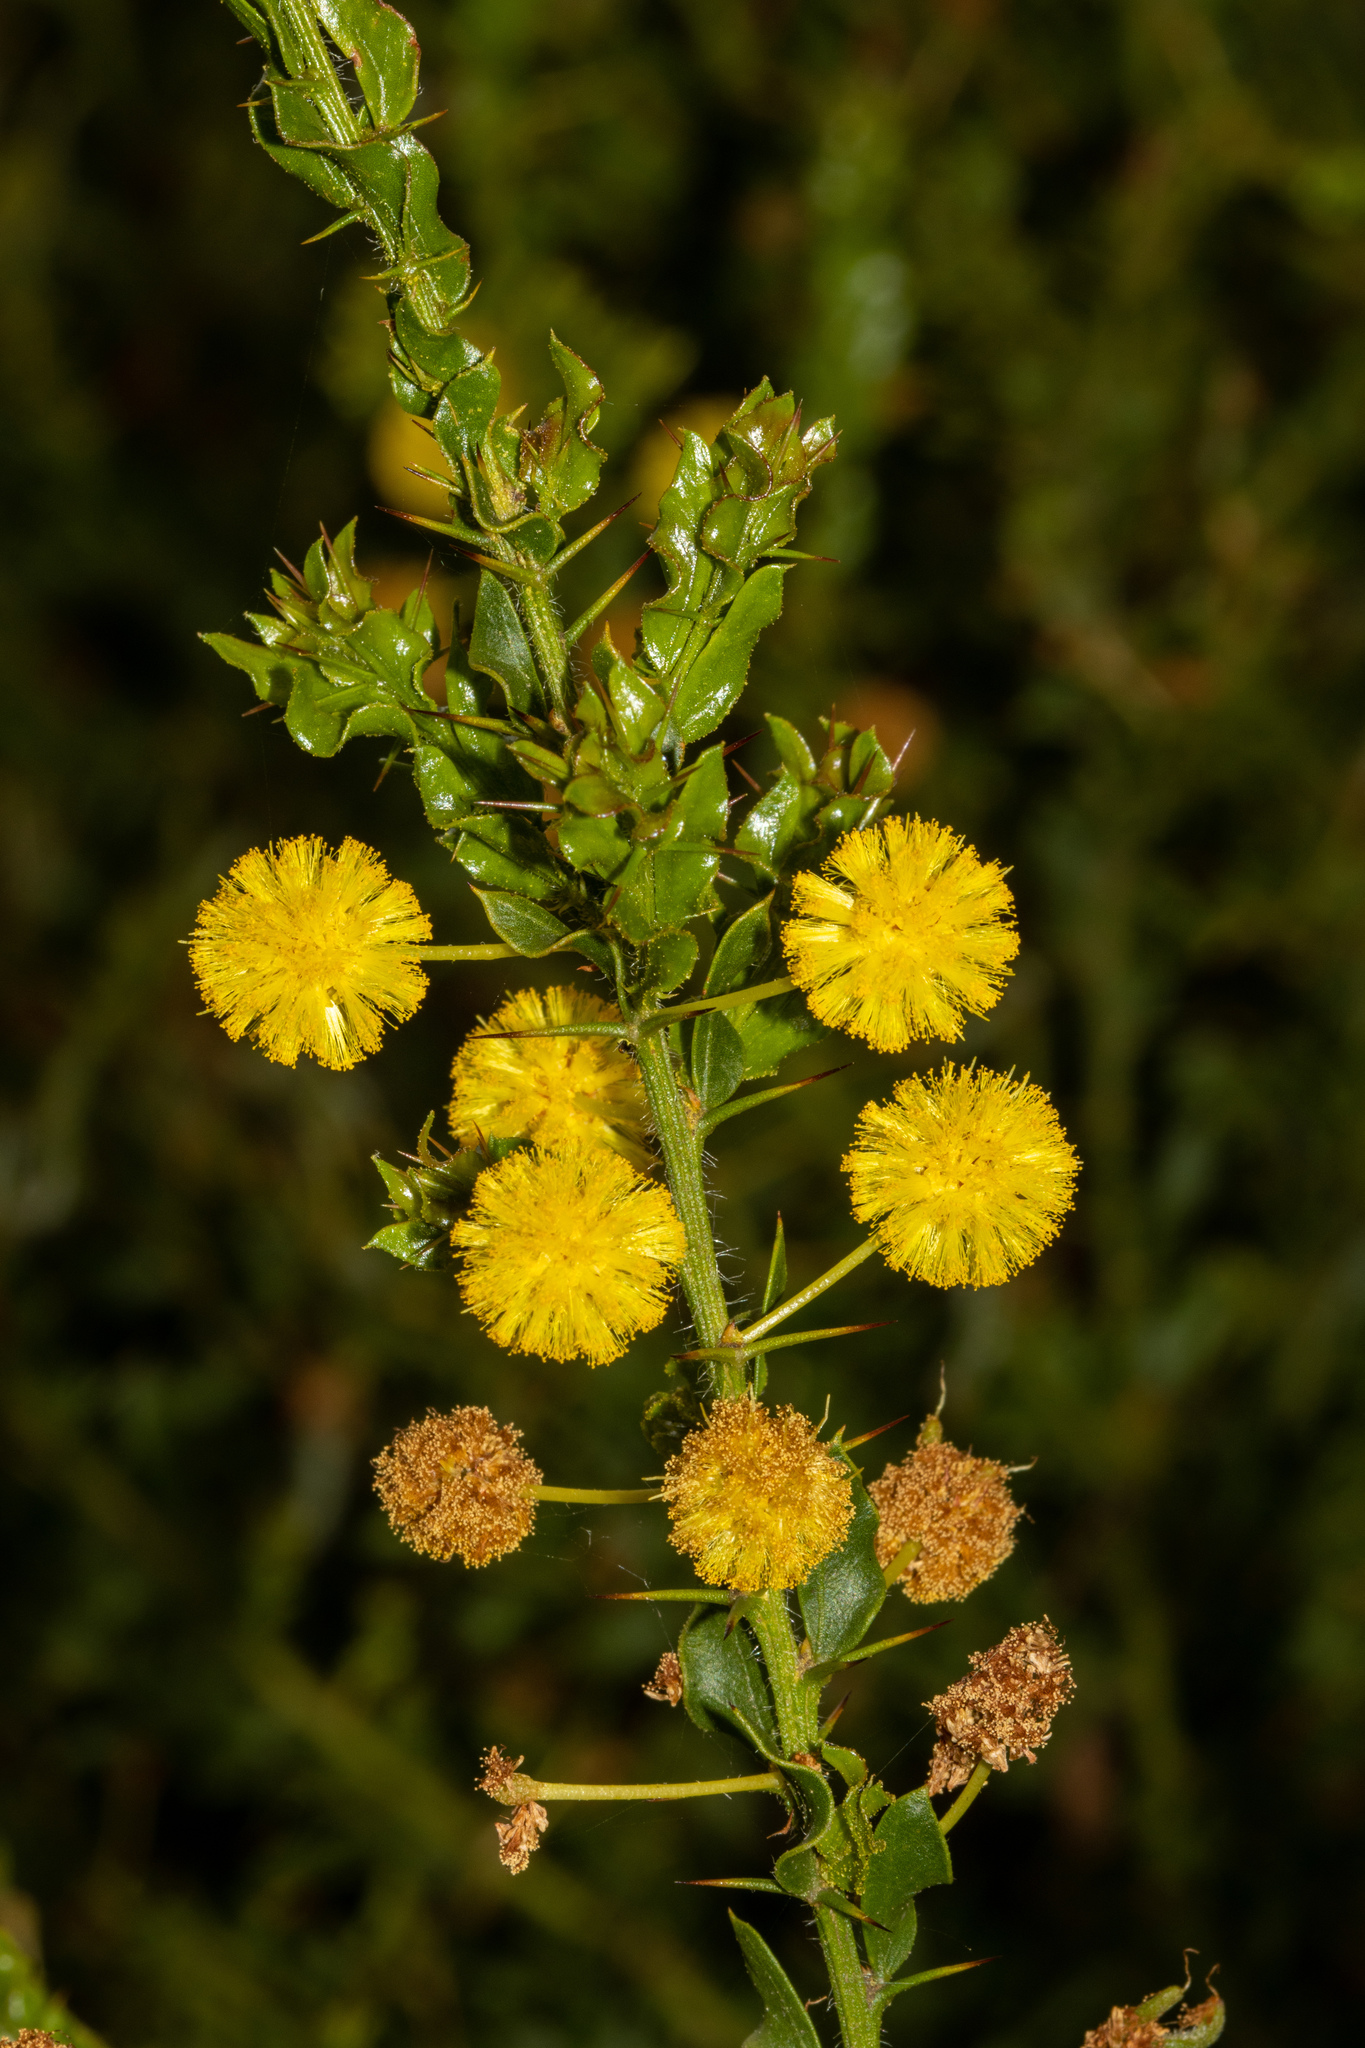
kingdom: Plantae
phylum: Tracheophyta
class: Magnoliopsida
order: Fabales
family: Fabaceae
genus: Acacia
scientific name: Acacia paradoxa
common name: Paradox acacia
